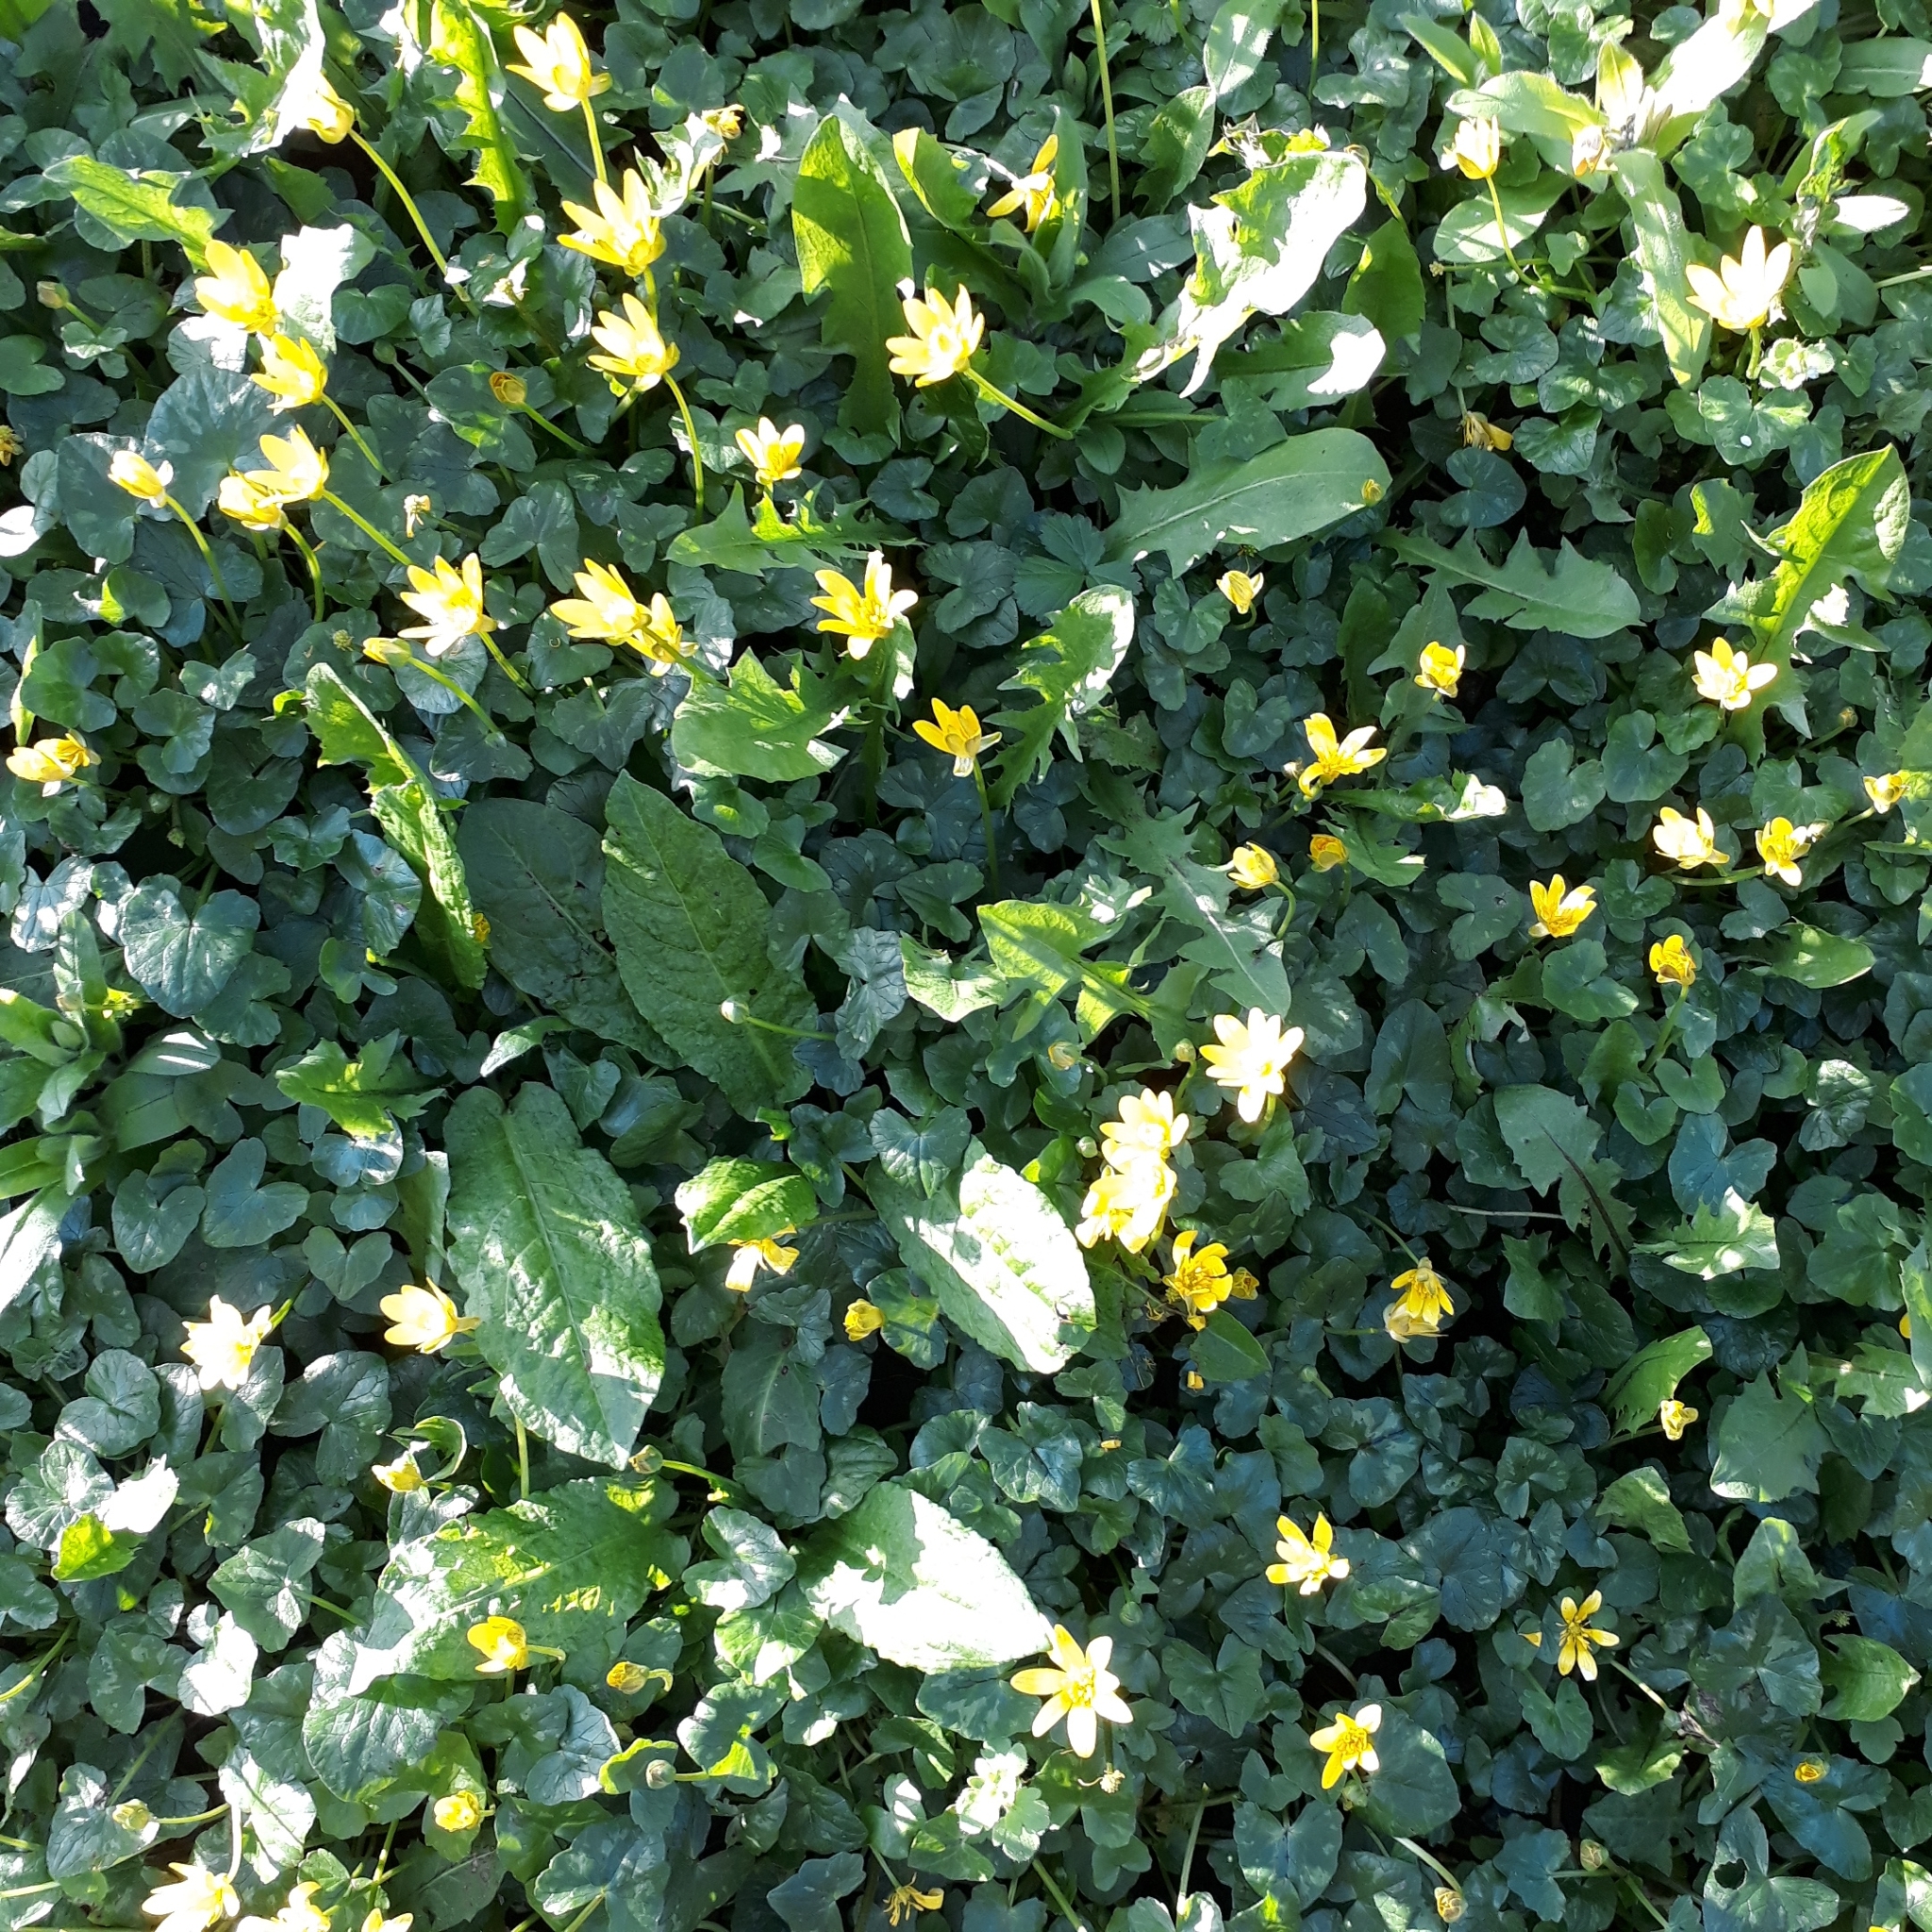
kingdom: Plantae
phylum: Tracheophyta
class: Magnoliopsida
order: Ranunculales
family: Ranunculaceae
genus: Ficaria
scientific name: Ficaria verna
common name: Lesser celandine
